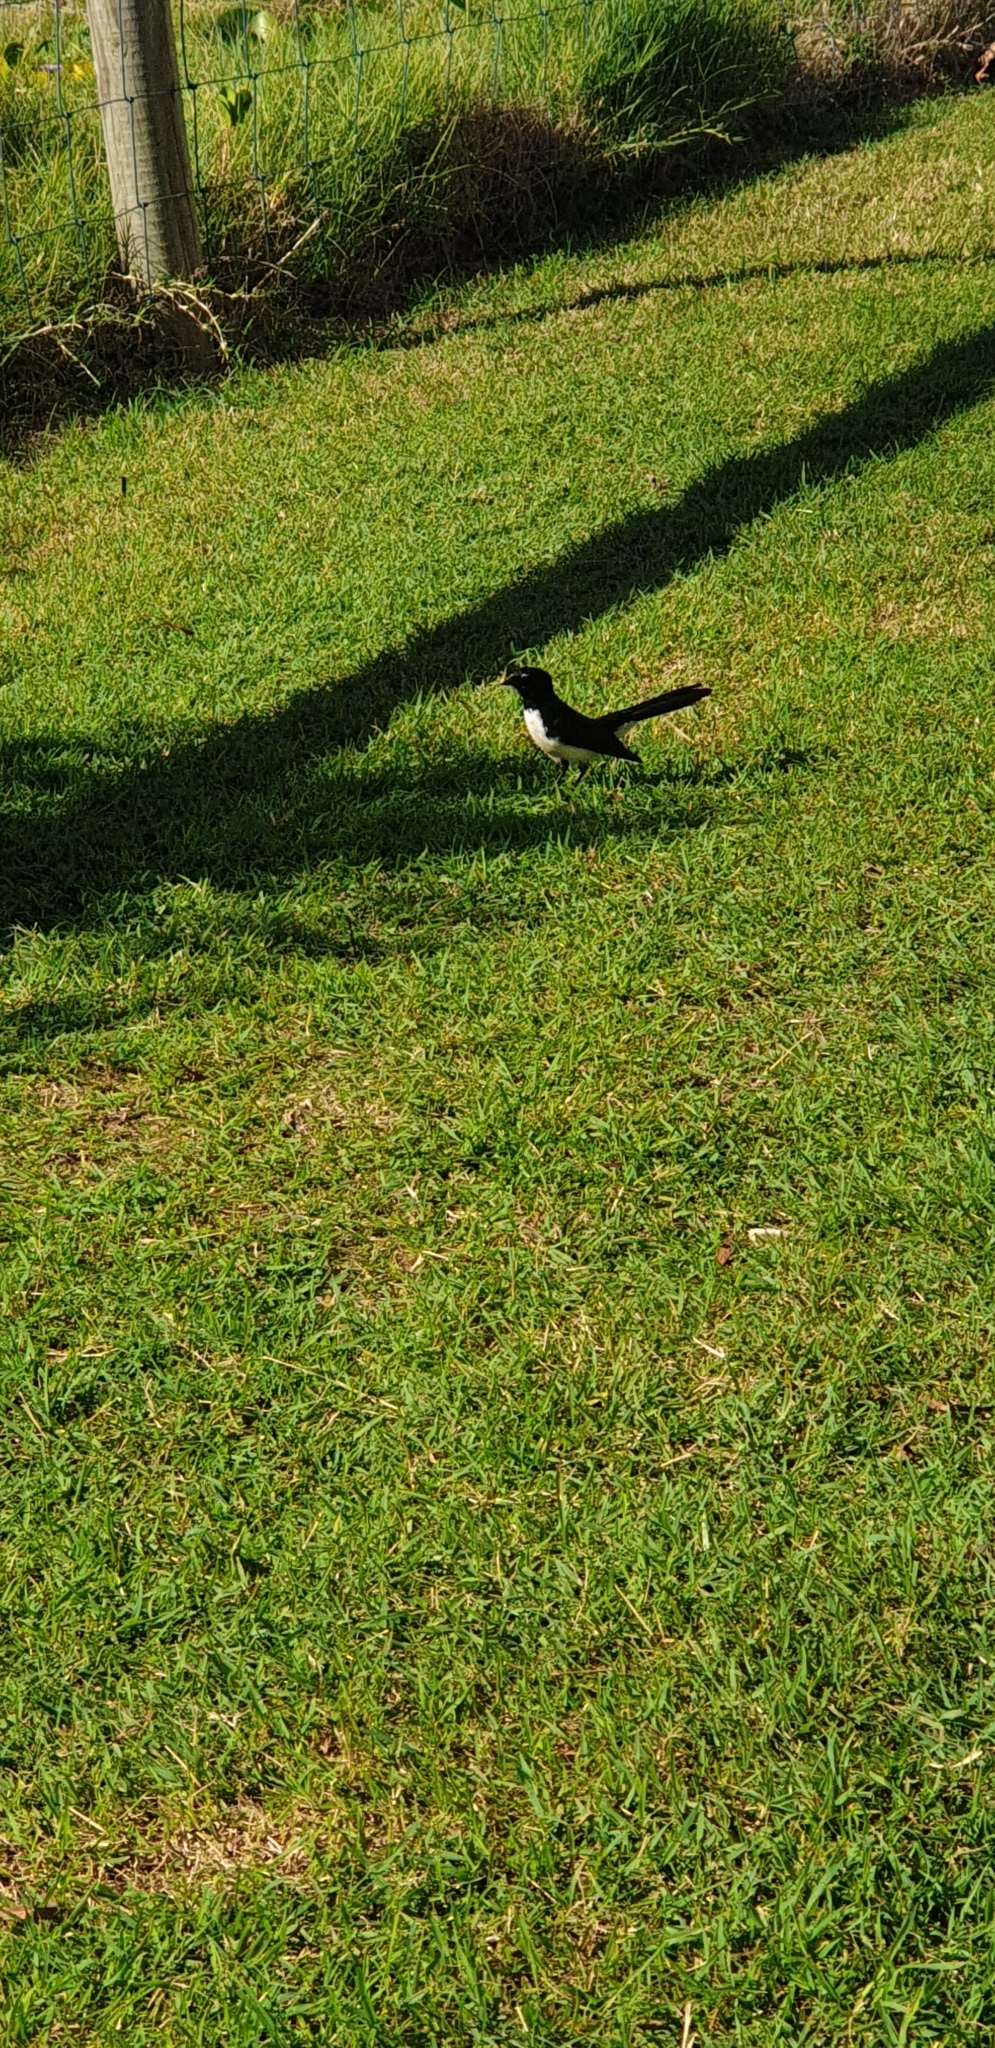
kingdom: Animalia
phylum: Chordata
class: Aves
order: Passeriformes
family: Rhipiduridae
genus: Rhipidura
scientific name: Rhipidura leucophrys
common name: Willie wagtail
